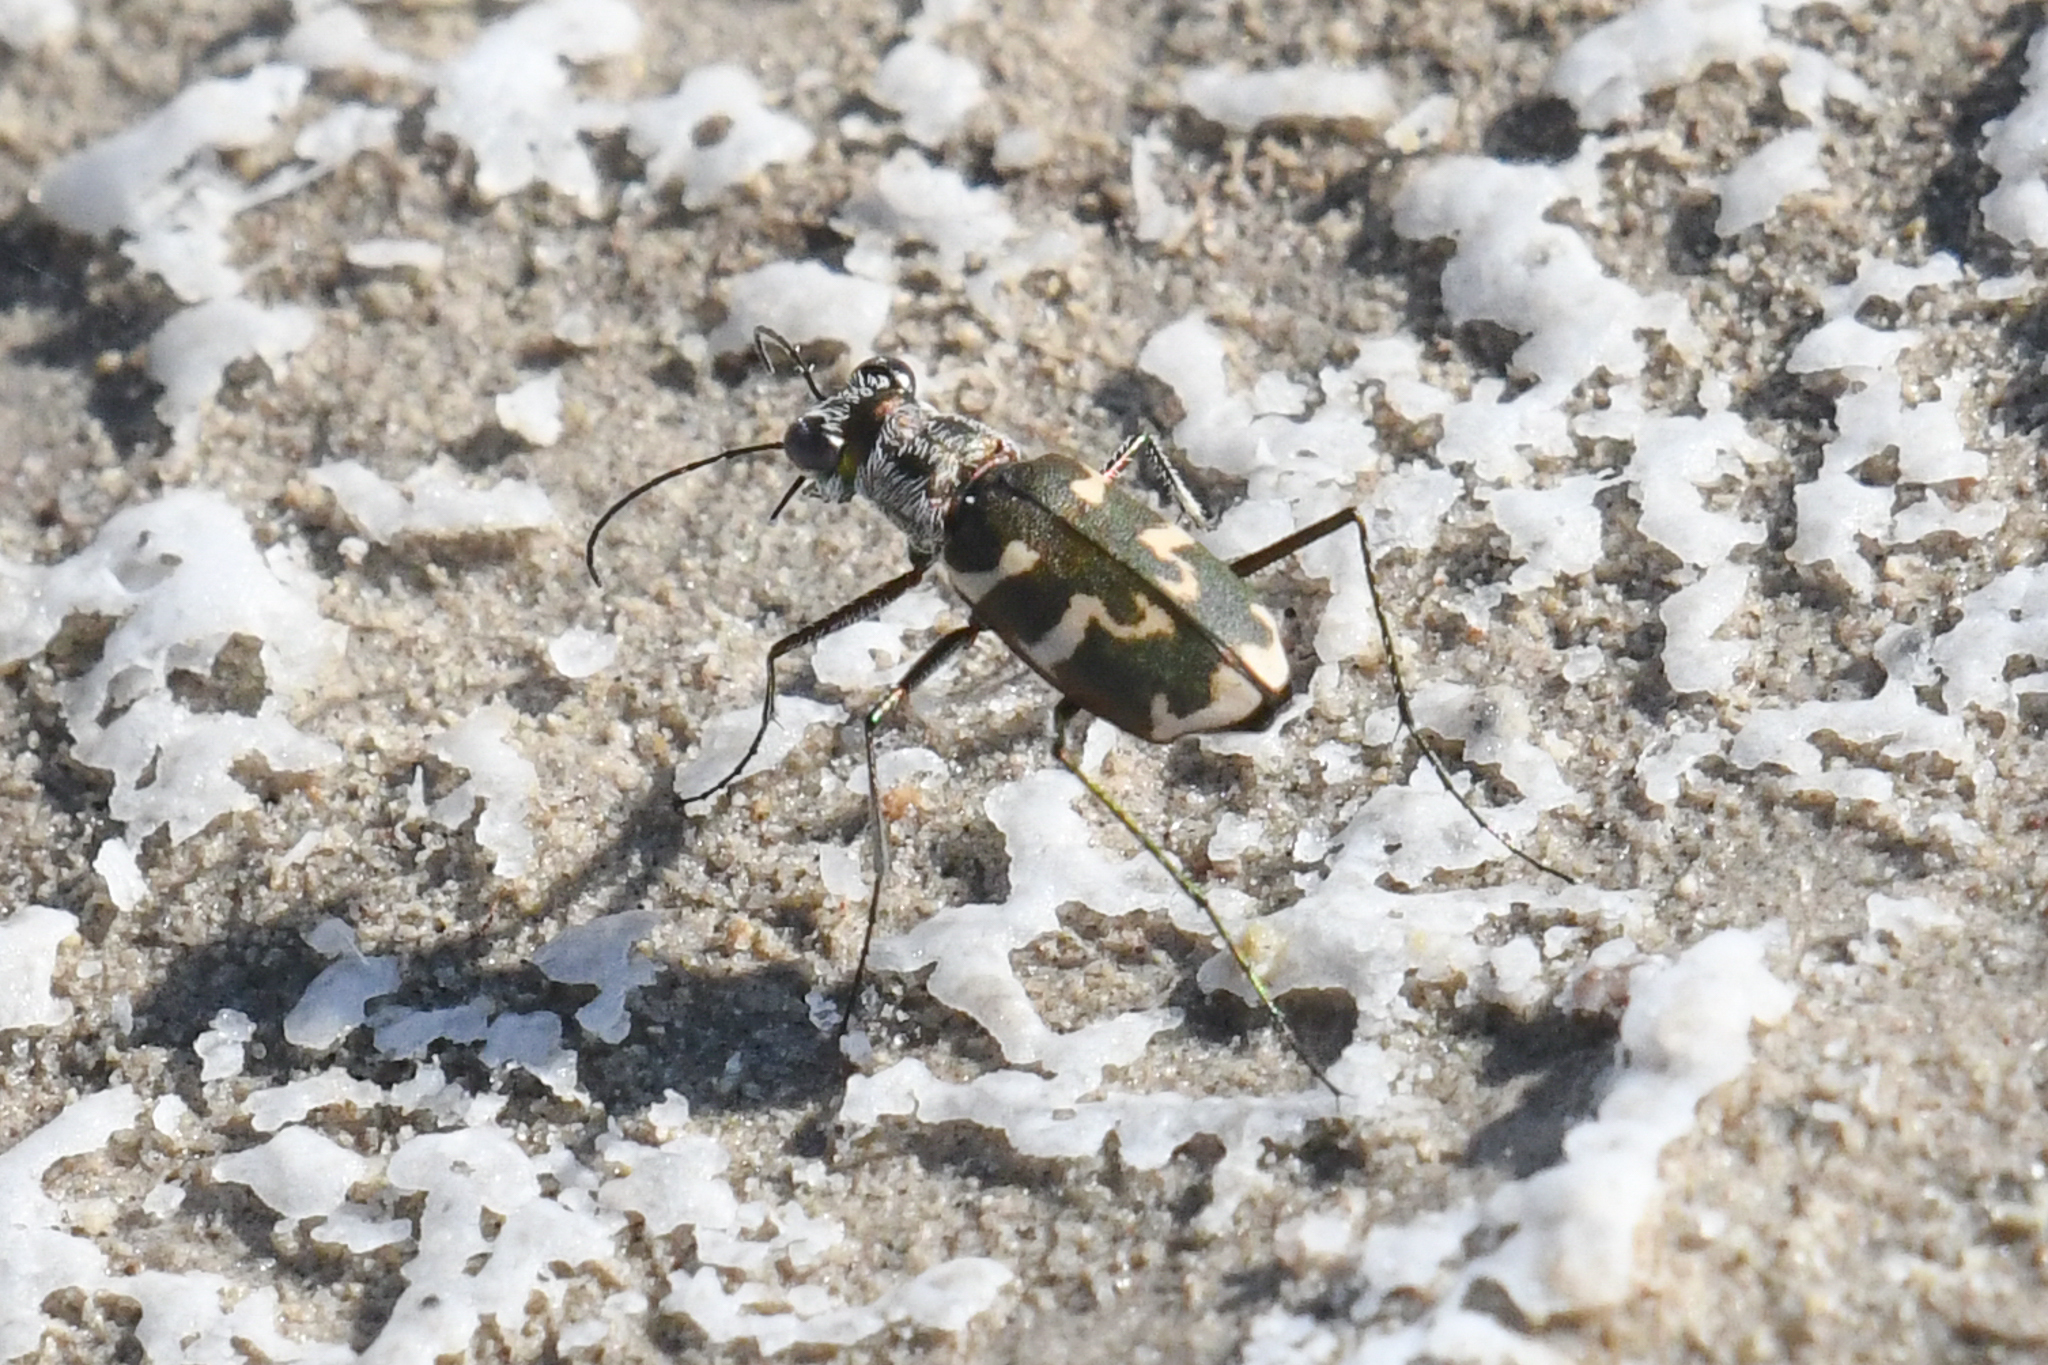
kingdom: Animalia
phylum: Arthropoda
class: Insecta
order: Coleoptera
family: Carabidae
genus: Ellipsoptera
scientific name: Ellipsoptera nevadica
